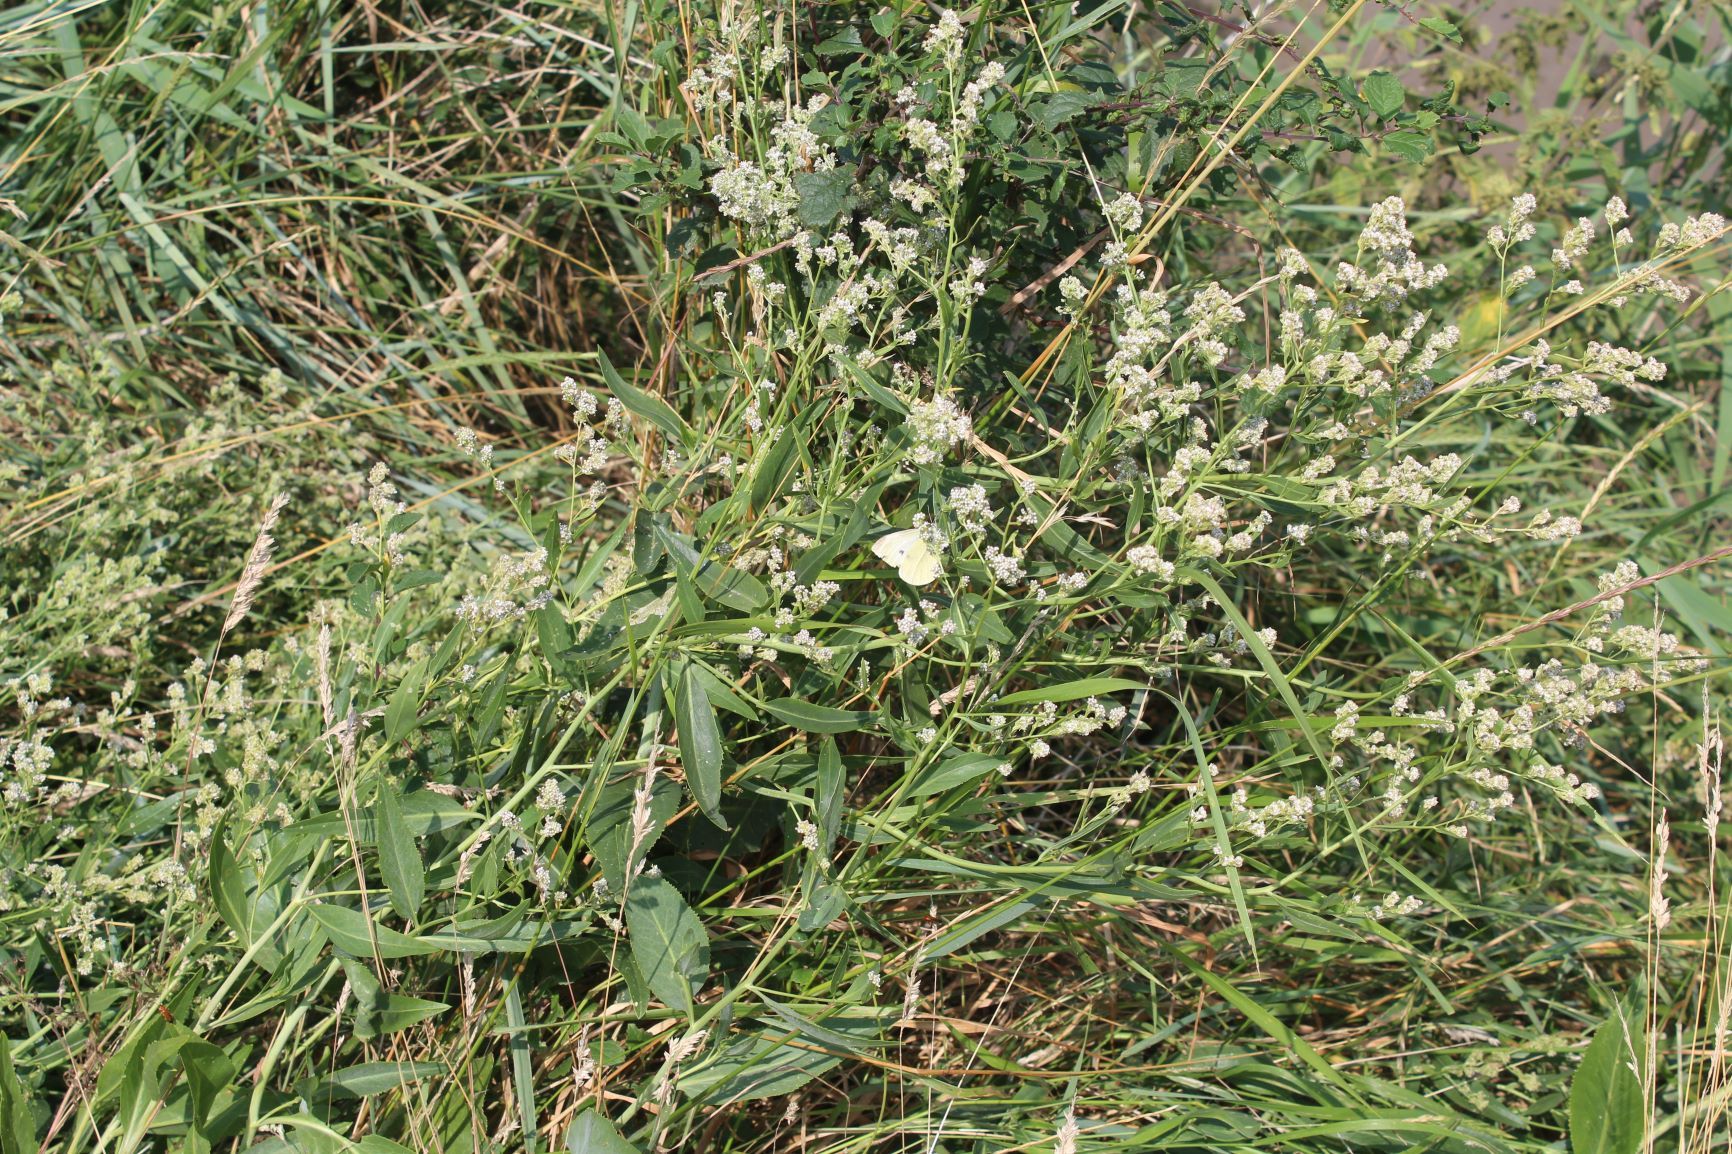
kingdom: Plantae
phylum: Tracheophyta
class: Magnoliopsida
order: Brassicales
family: Brassicaceae
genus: Lepidium
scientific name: Lepidium latifolium
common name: Dittander
